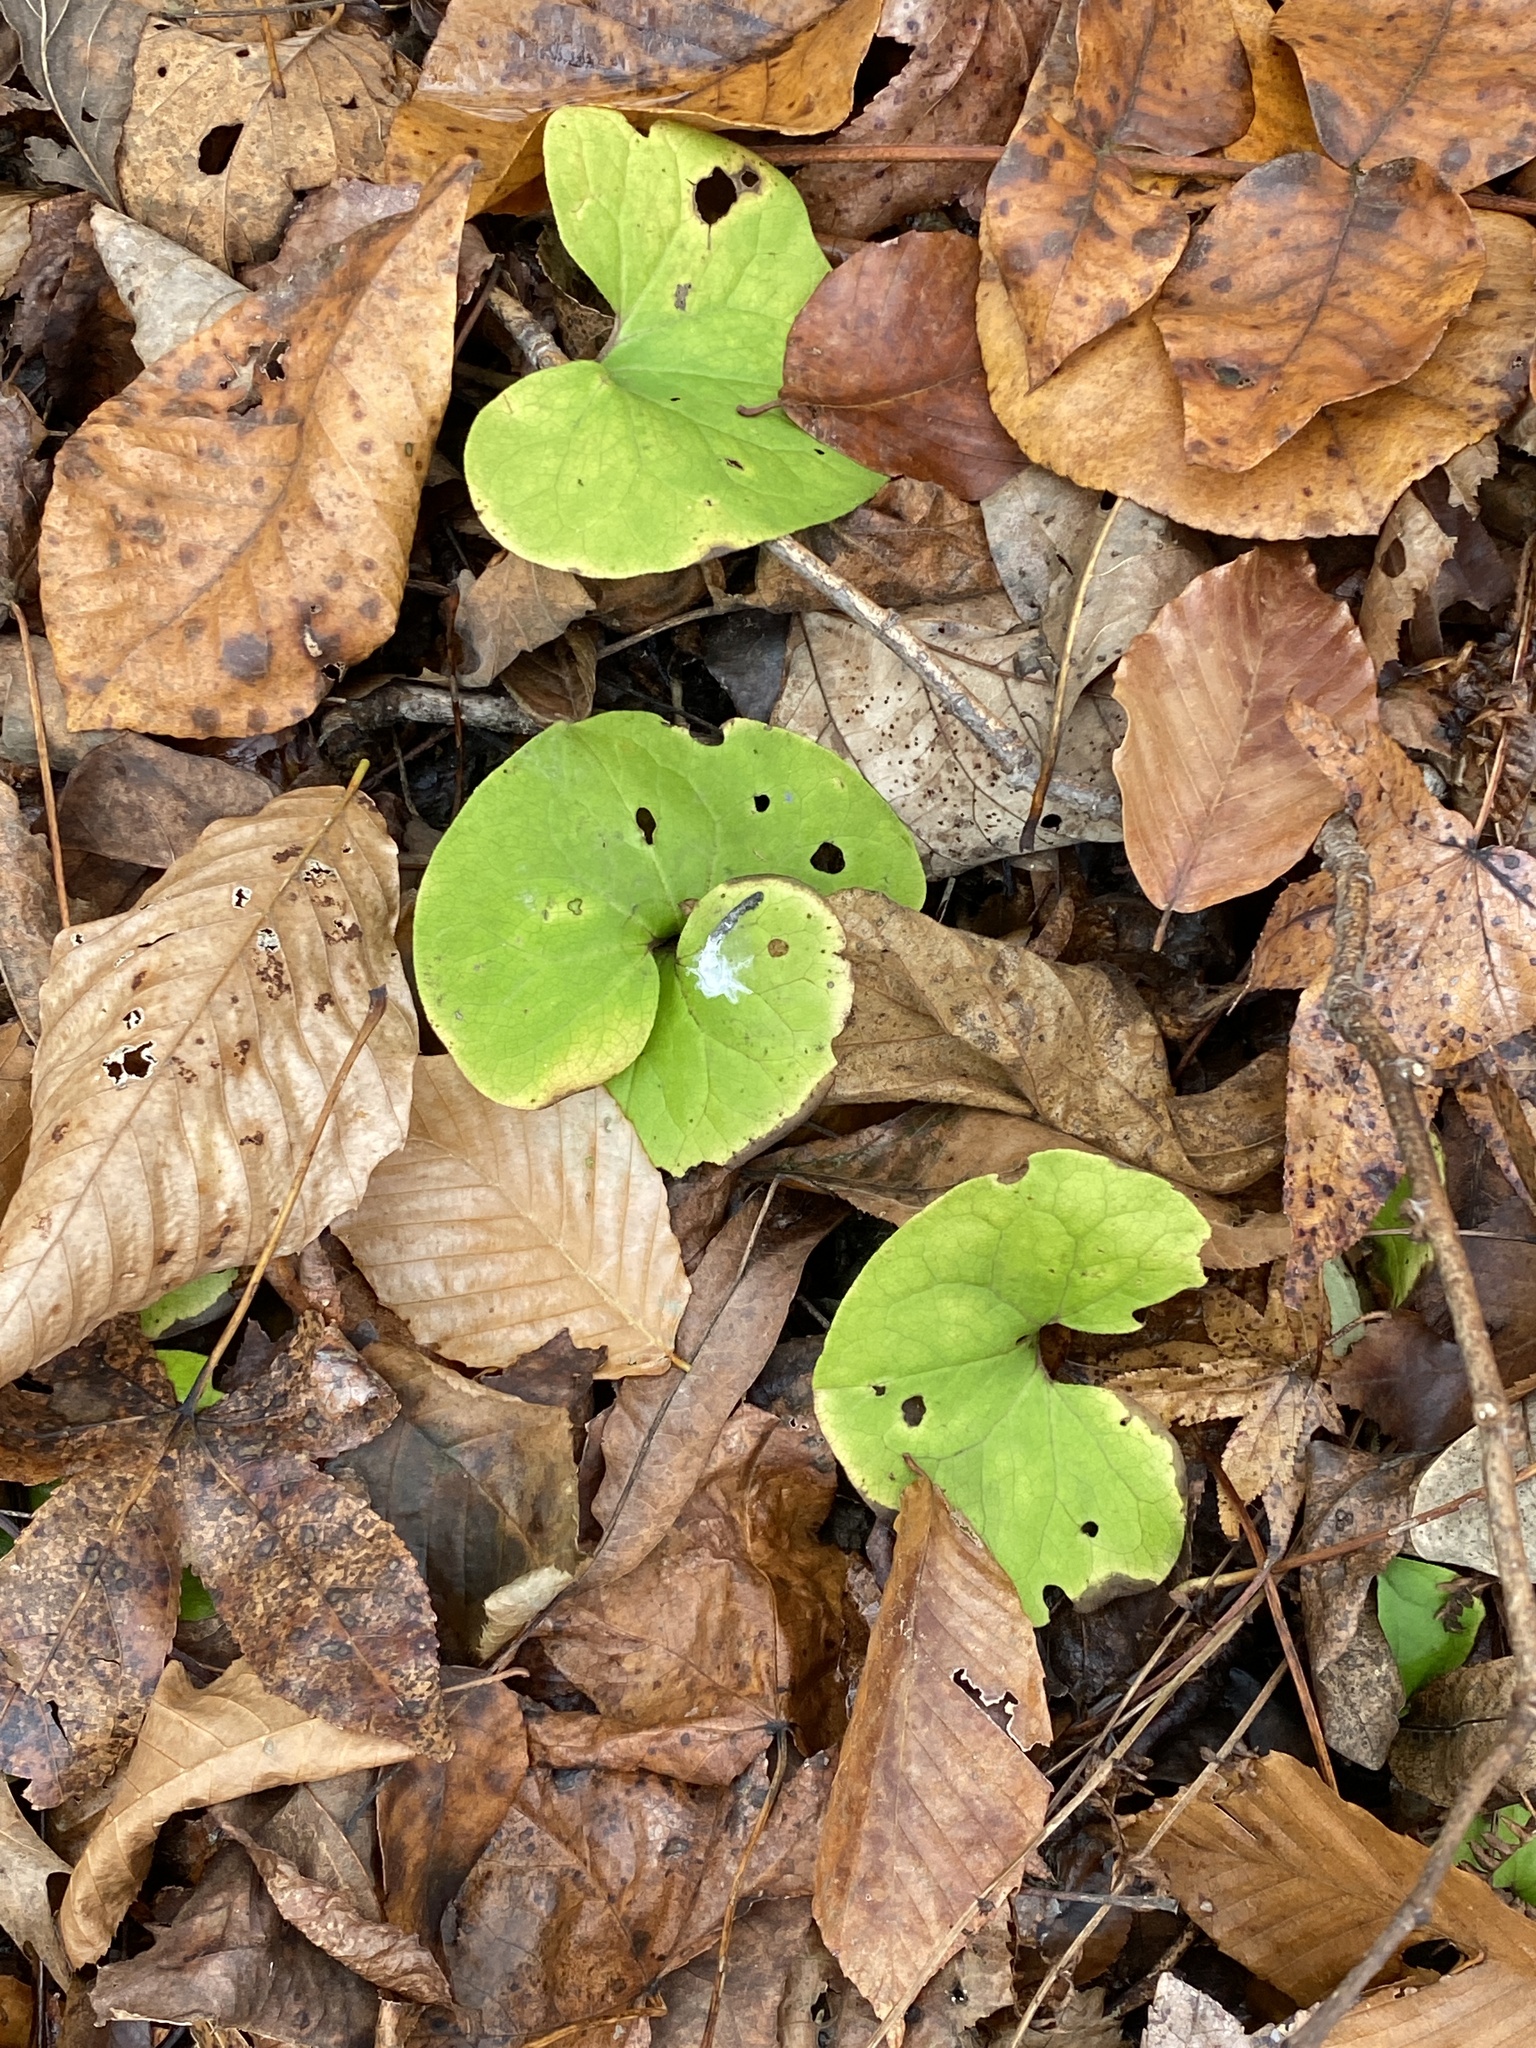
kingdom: Plantae
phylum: Tracheophyta
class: Magnoliopsida
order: Piperales
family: Aristolochiaceae
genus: Asarum
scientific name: Asarum canadense
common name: Wild ginger
